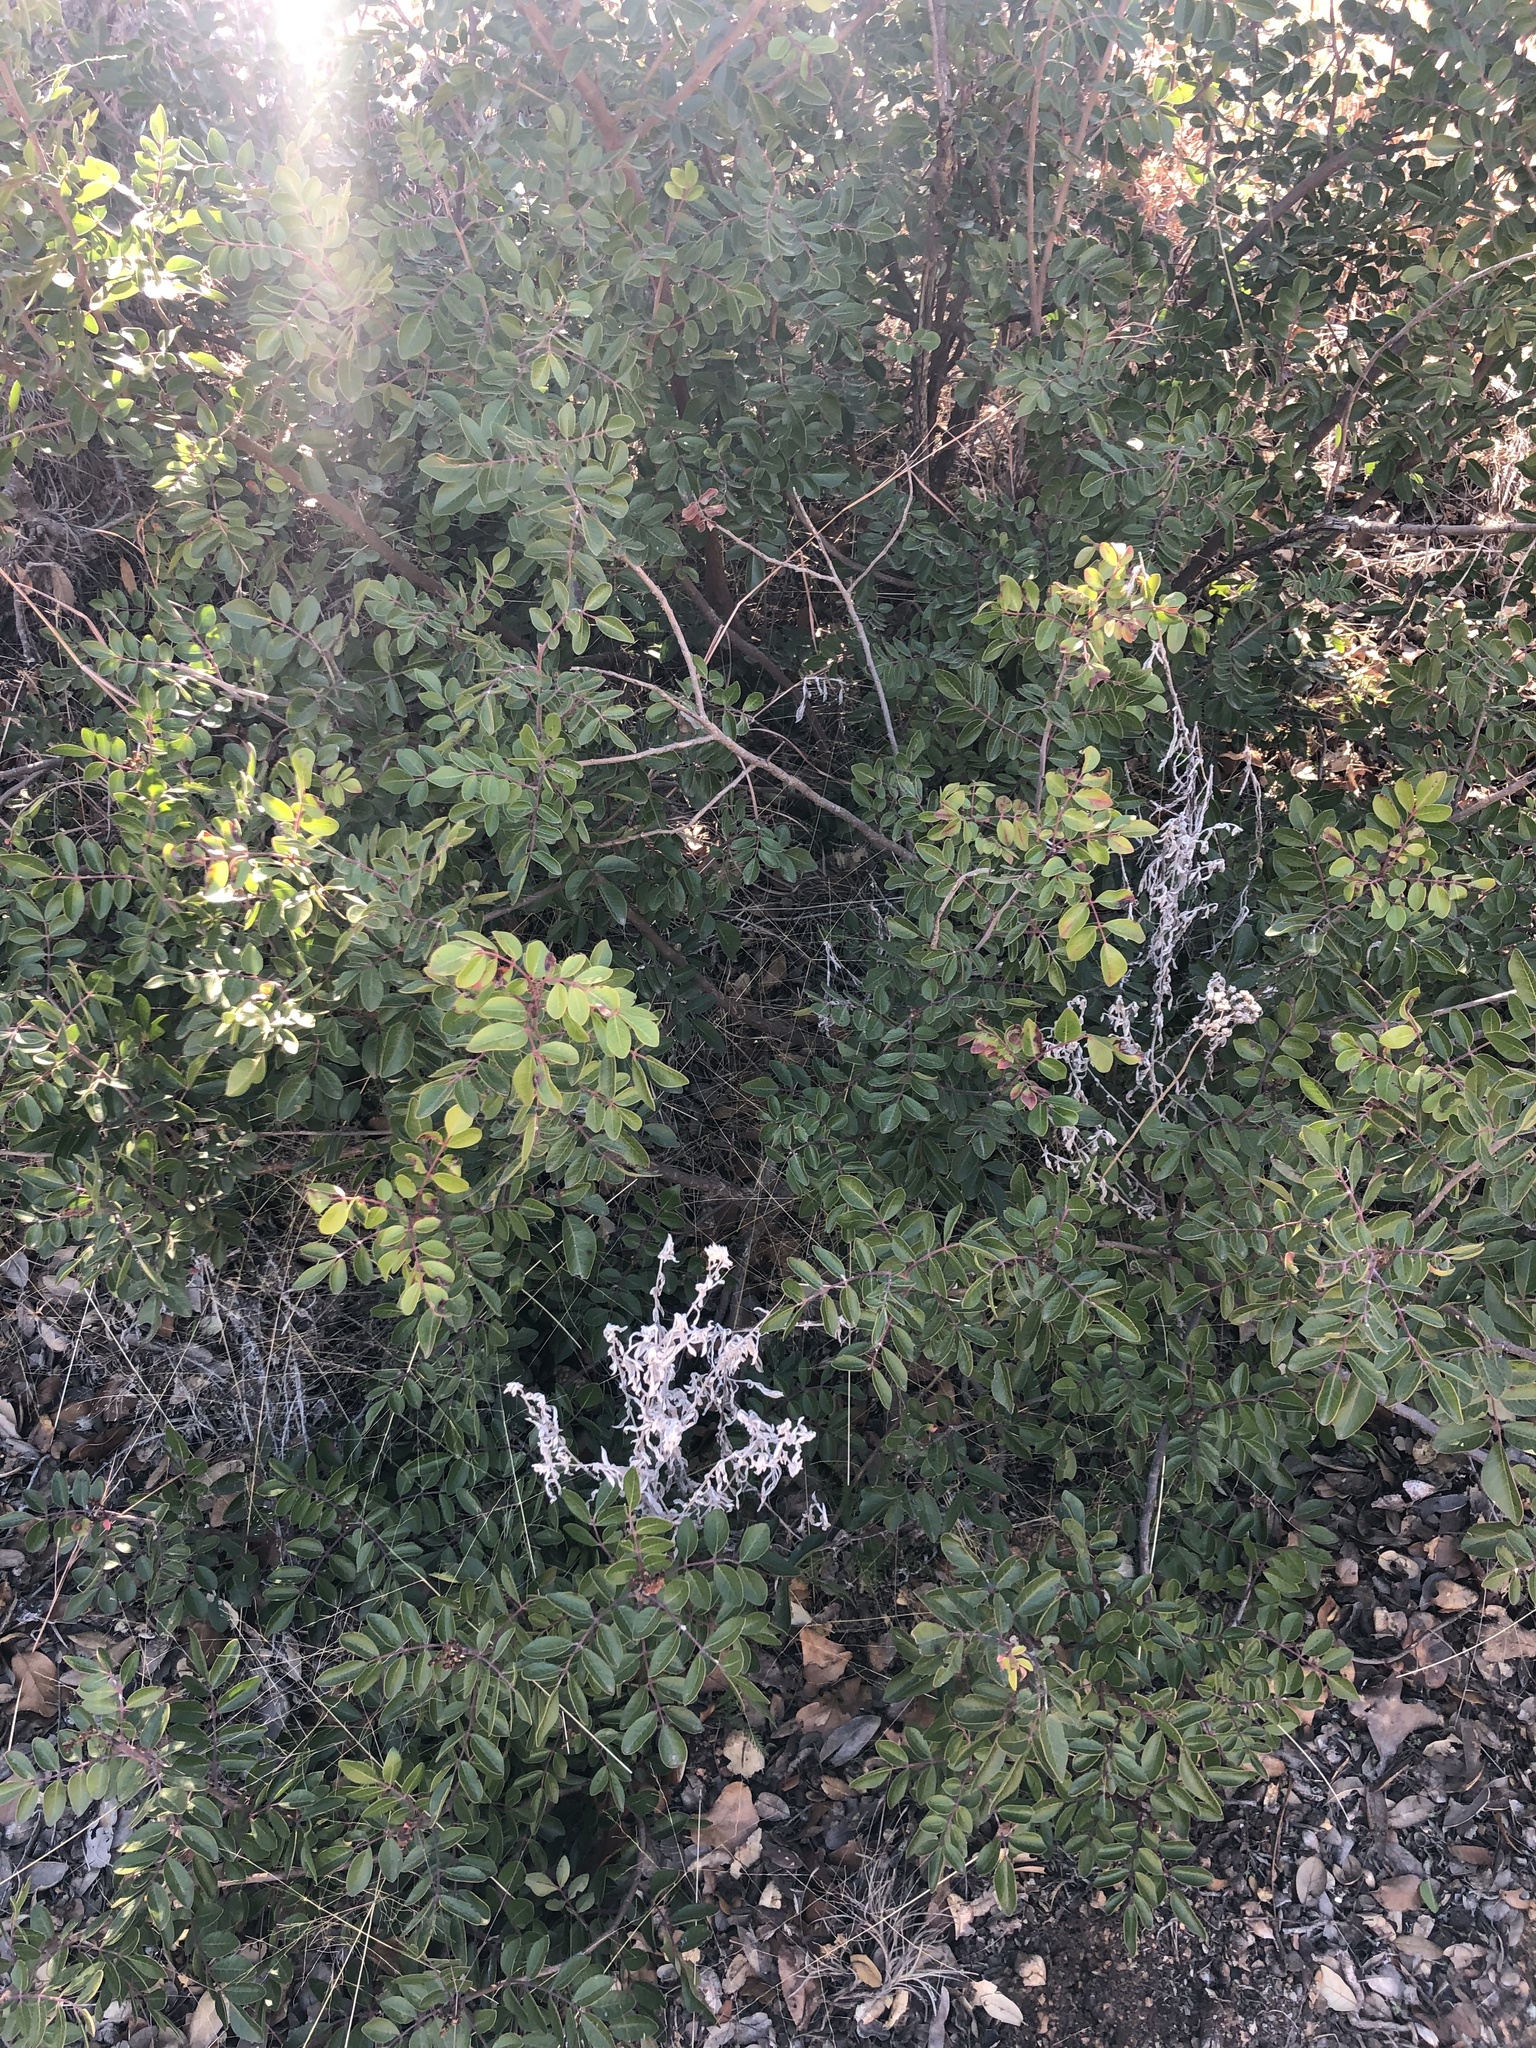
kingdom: Plantae
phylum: Tracheophyta
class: Magnoliopsida
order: Sapindales
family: Anacardiaceae
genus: Rhus
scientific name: Rhus virens
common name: Evergreen sumac
